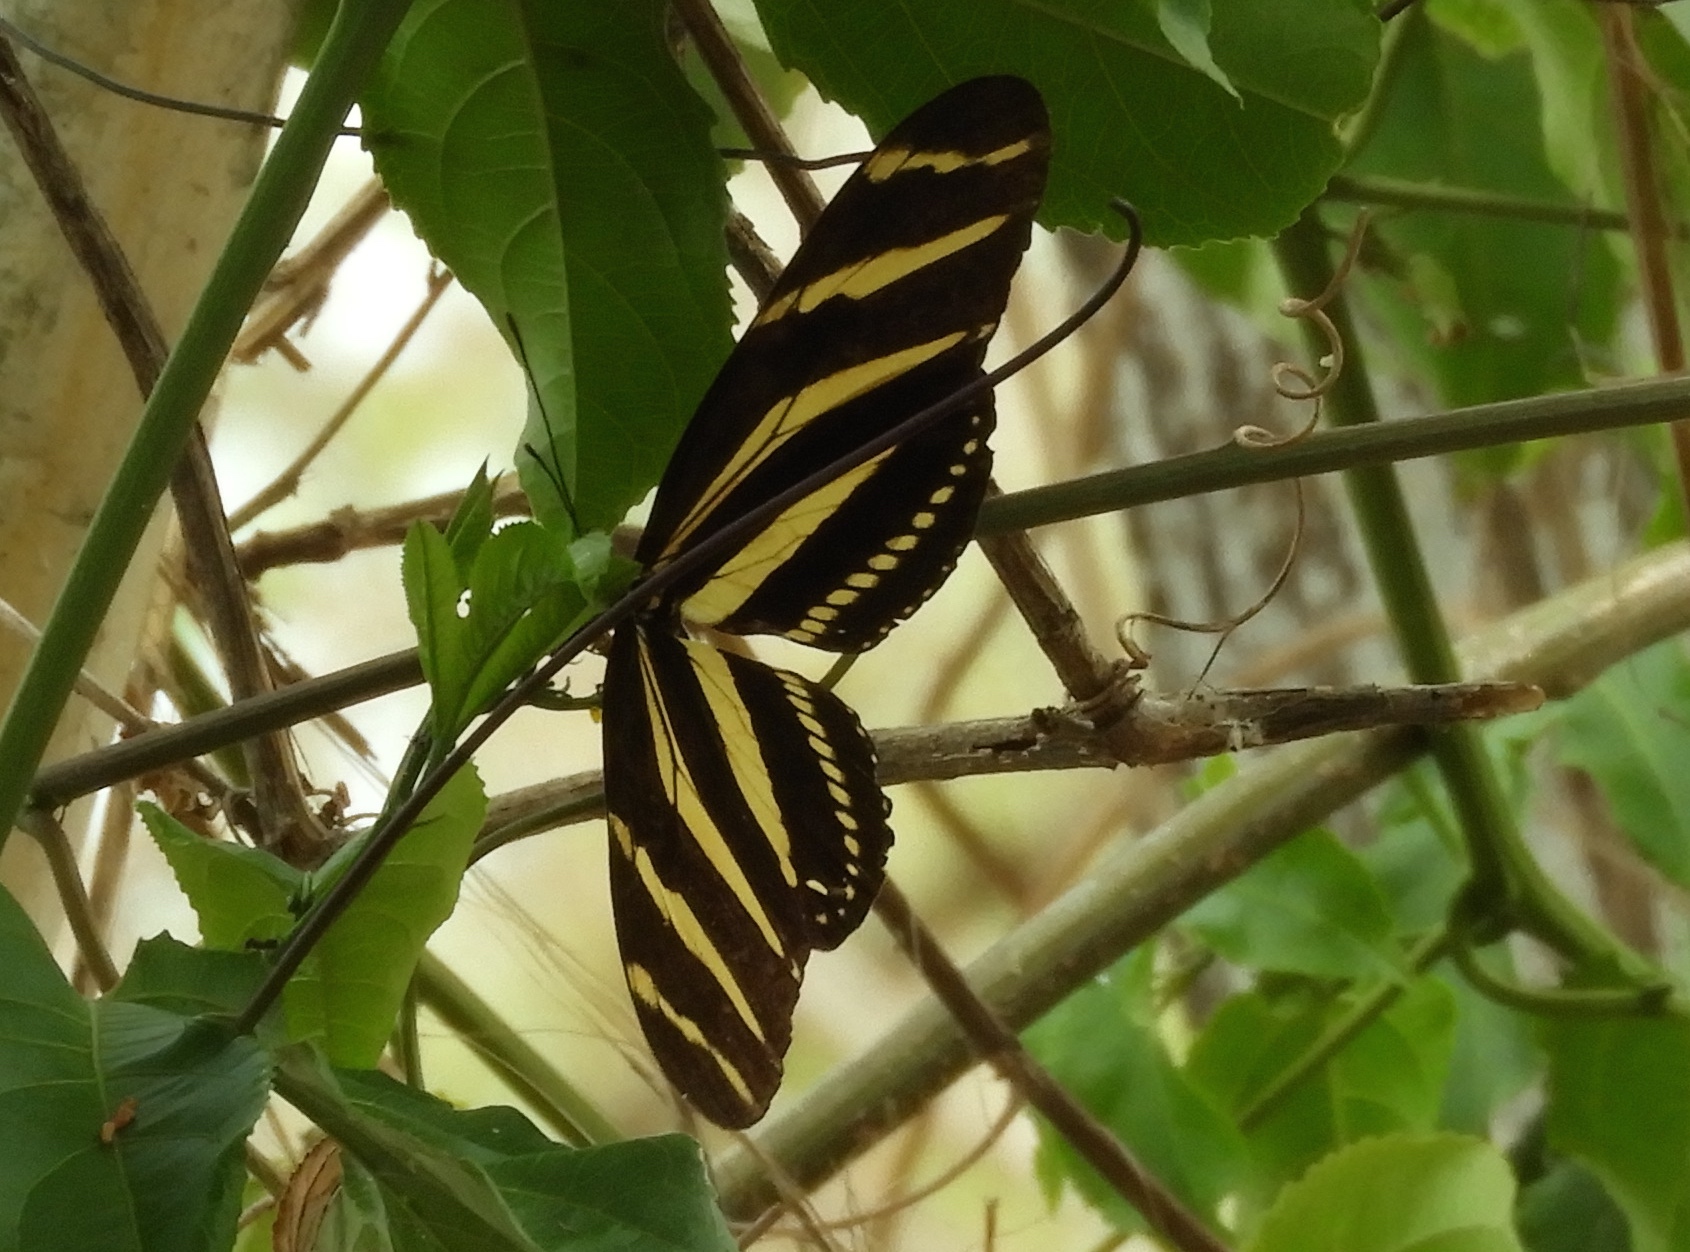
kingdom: Animalia
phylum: Arthropoda
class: Insecta
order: Lepidoptera
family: Nymphalidae
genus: Heliconius
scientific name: Heliconius charithonia
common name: Zebra long wing
